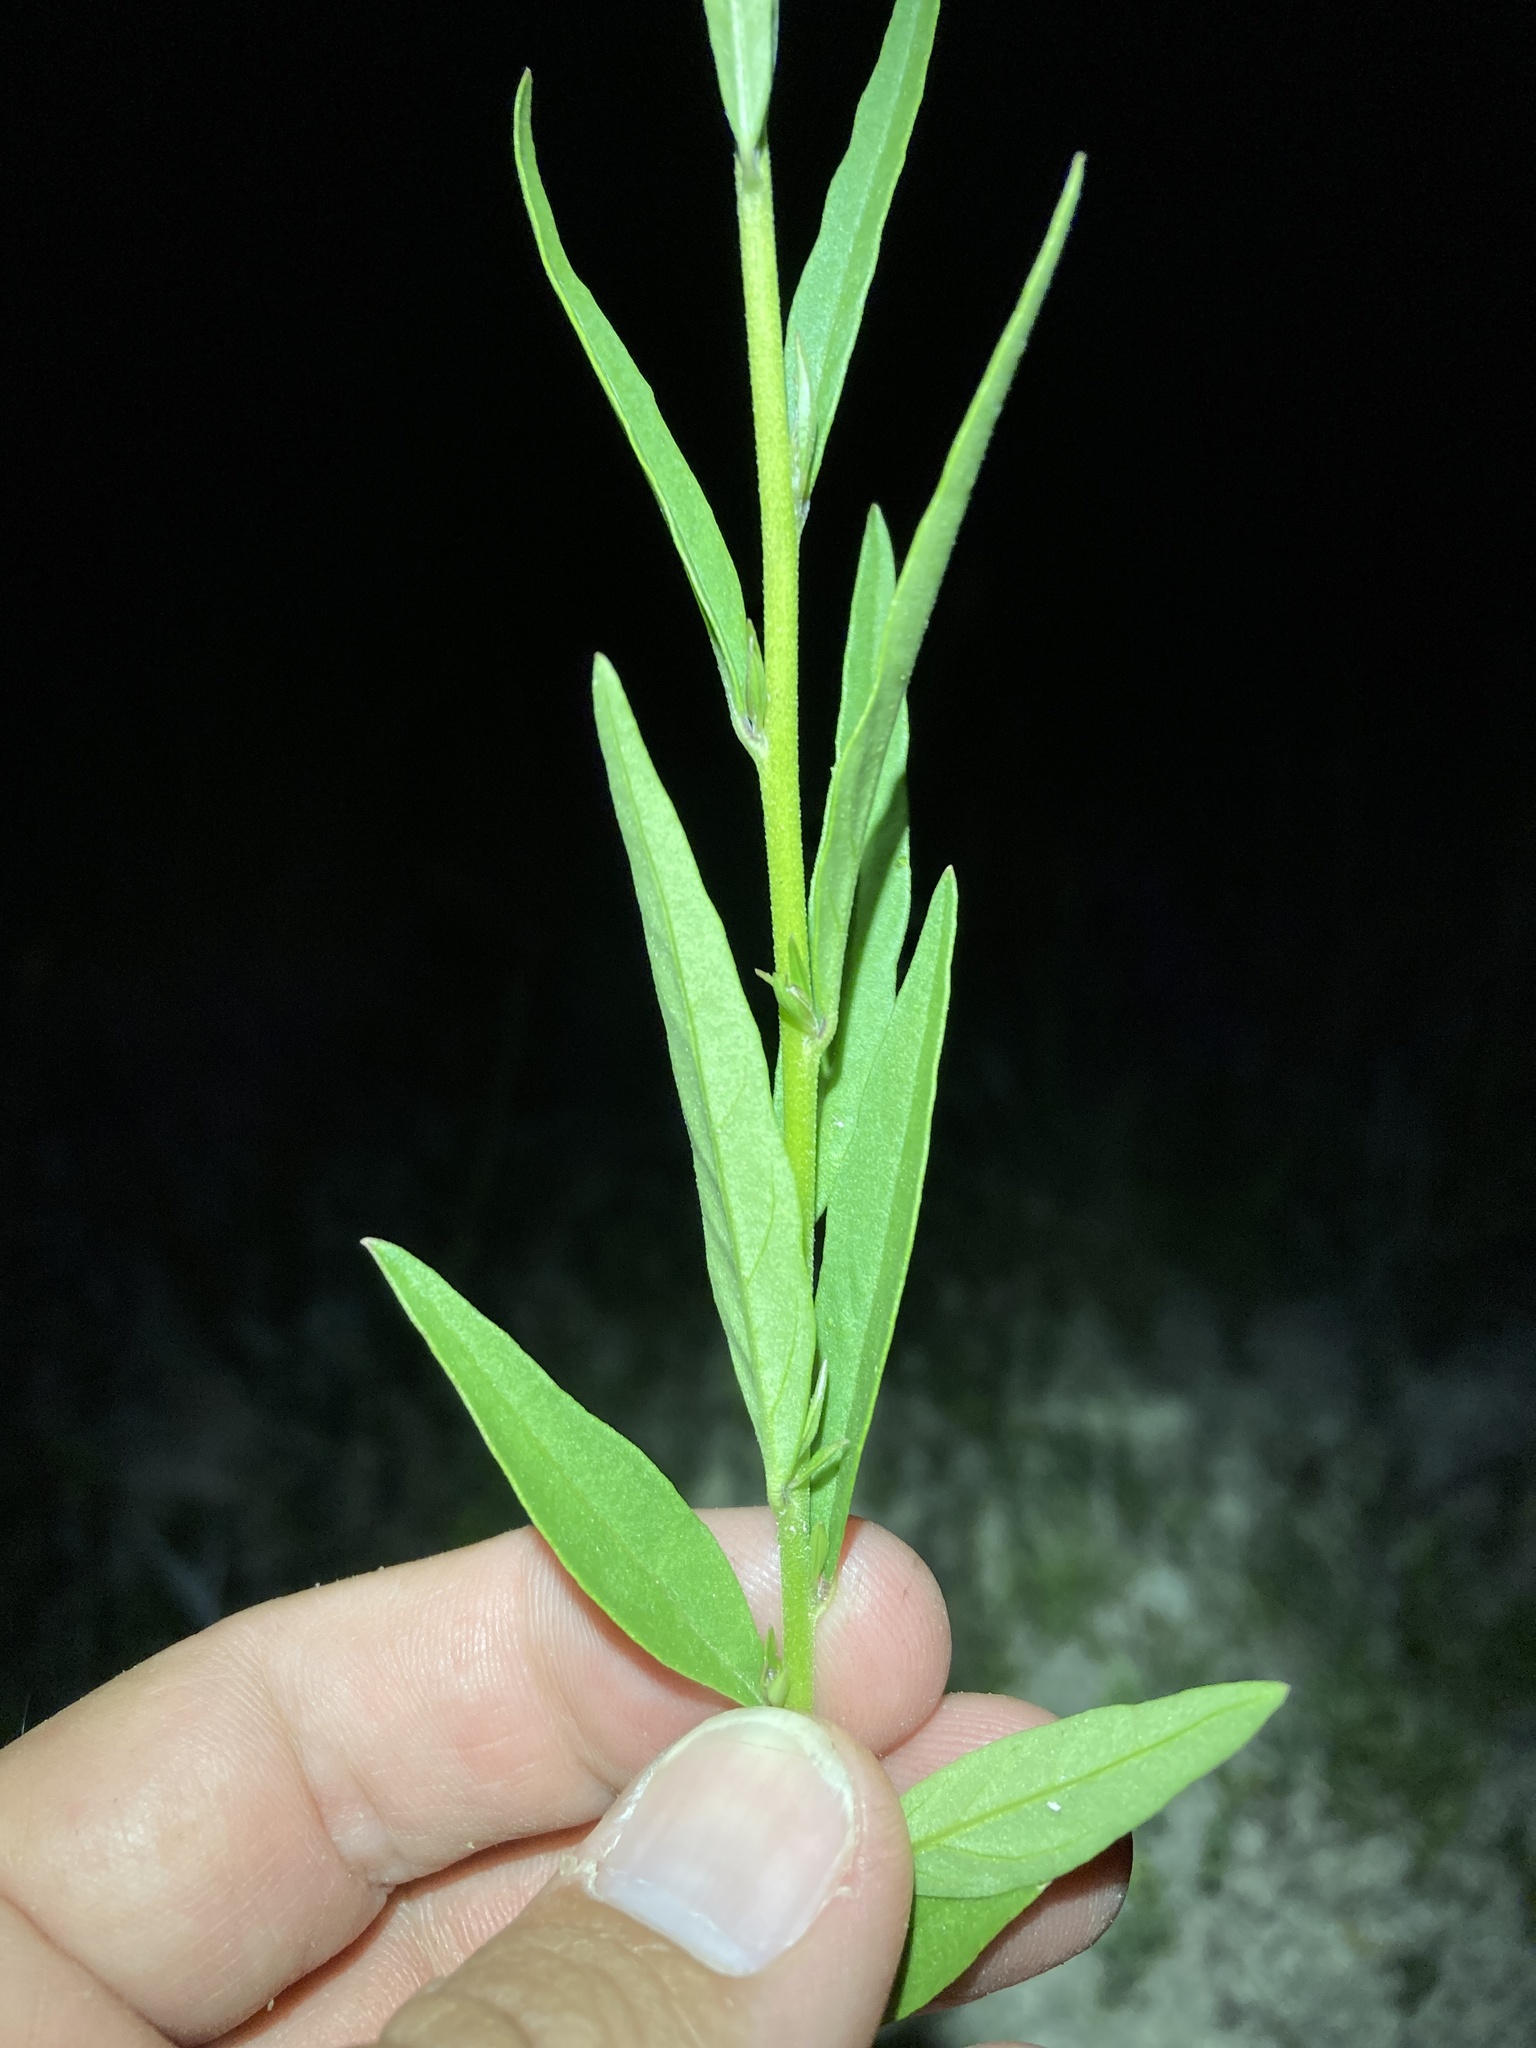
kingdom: Plantae
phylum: Tracheophyta
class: Magnoliopsida
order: Fabales
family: Polygalaceae
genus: Monnina
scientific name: Monnina wrightii
